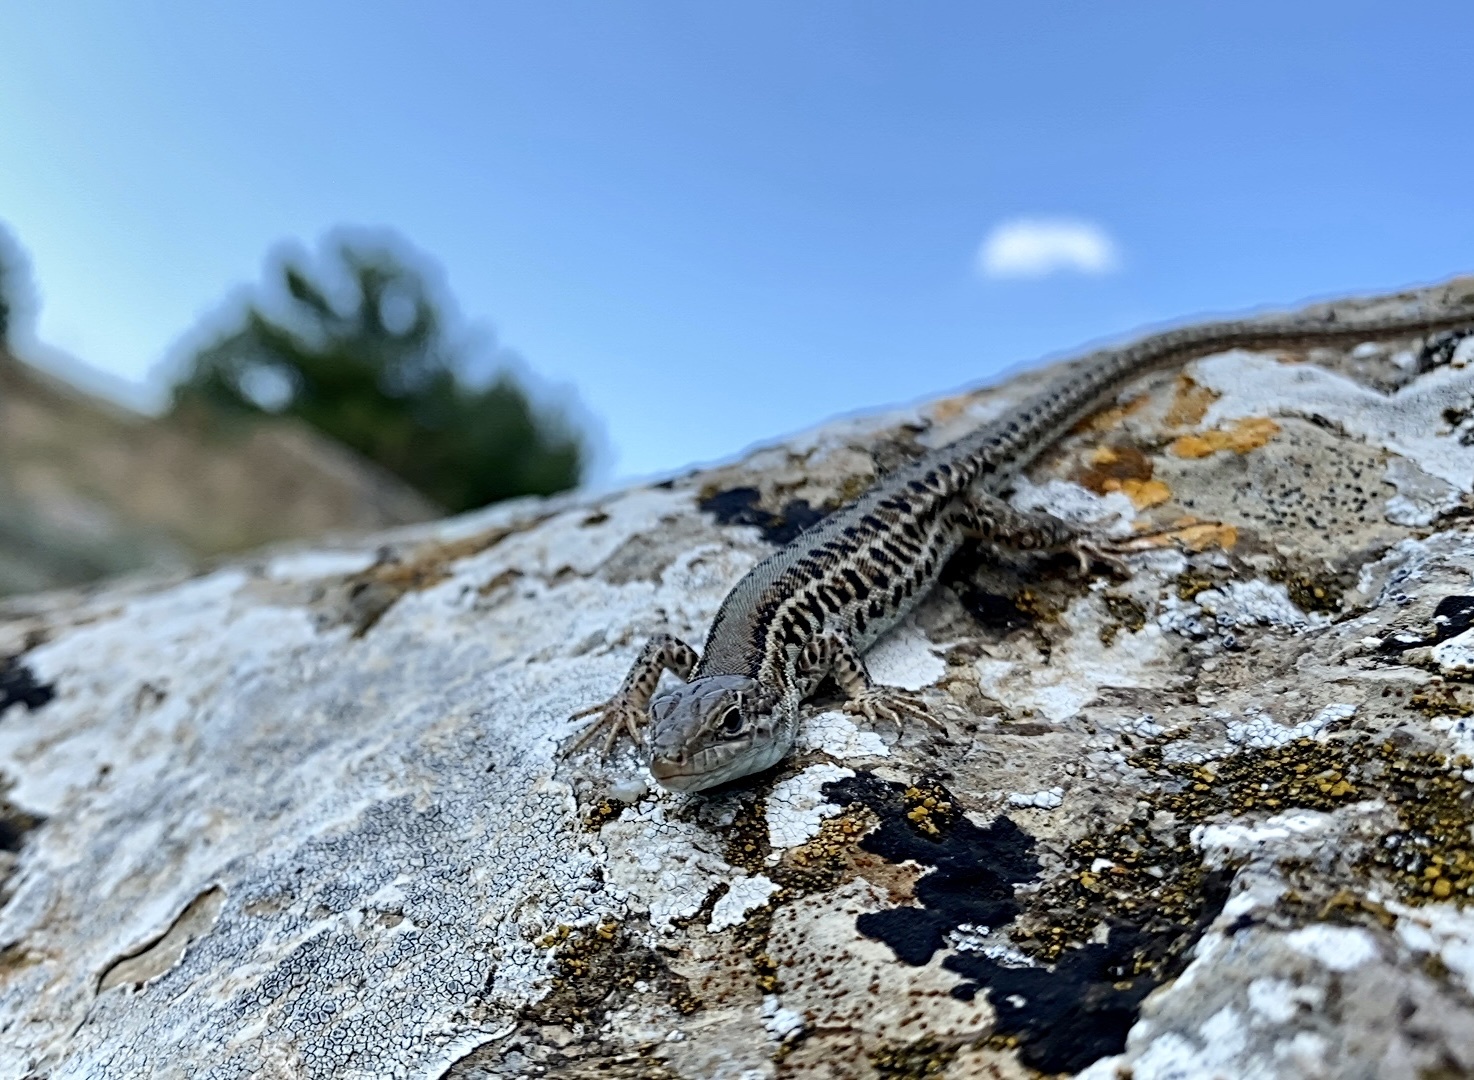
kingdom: Animalia
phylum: Chordata
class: Squamata
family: Lacertidae
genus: Podarcis
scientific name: Podarcis tauricus
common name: Balkan wall lizard
